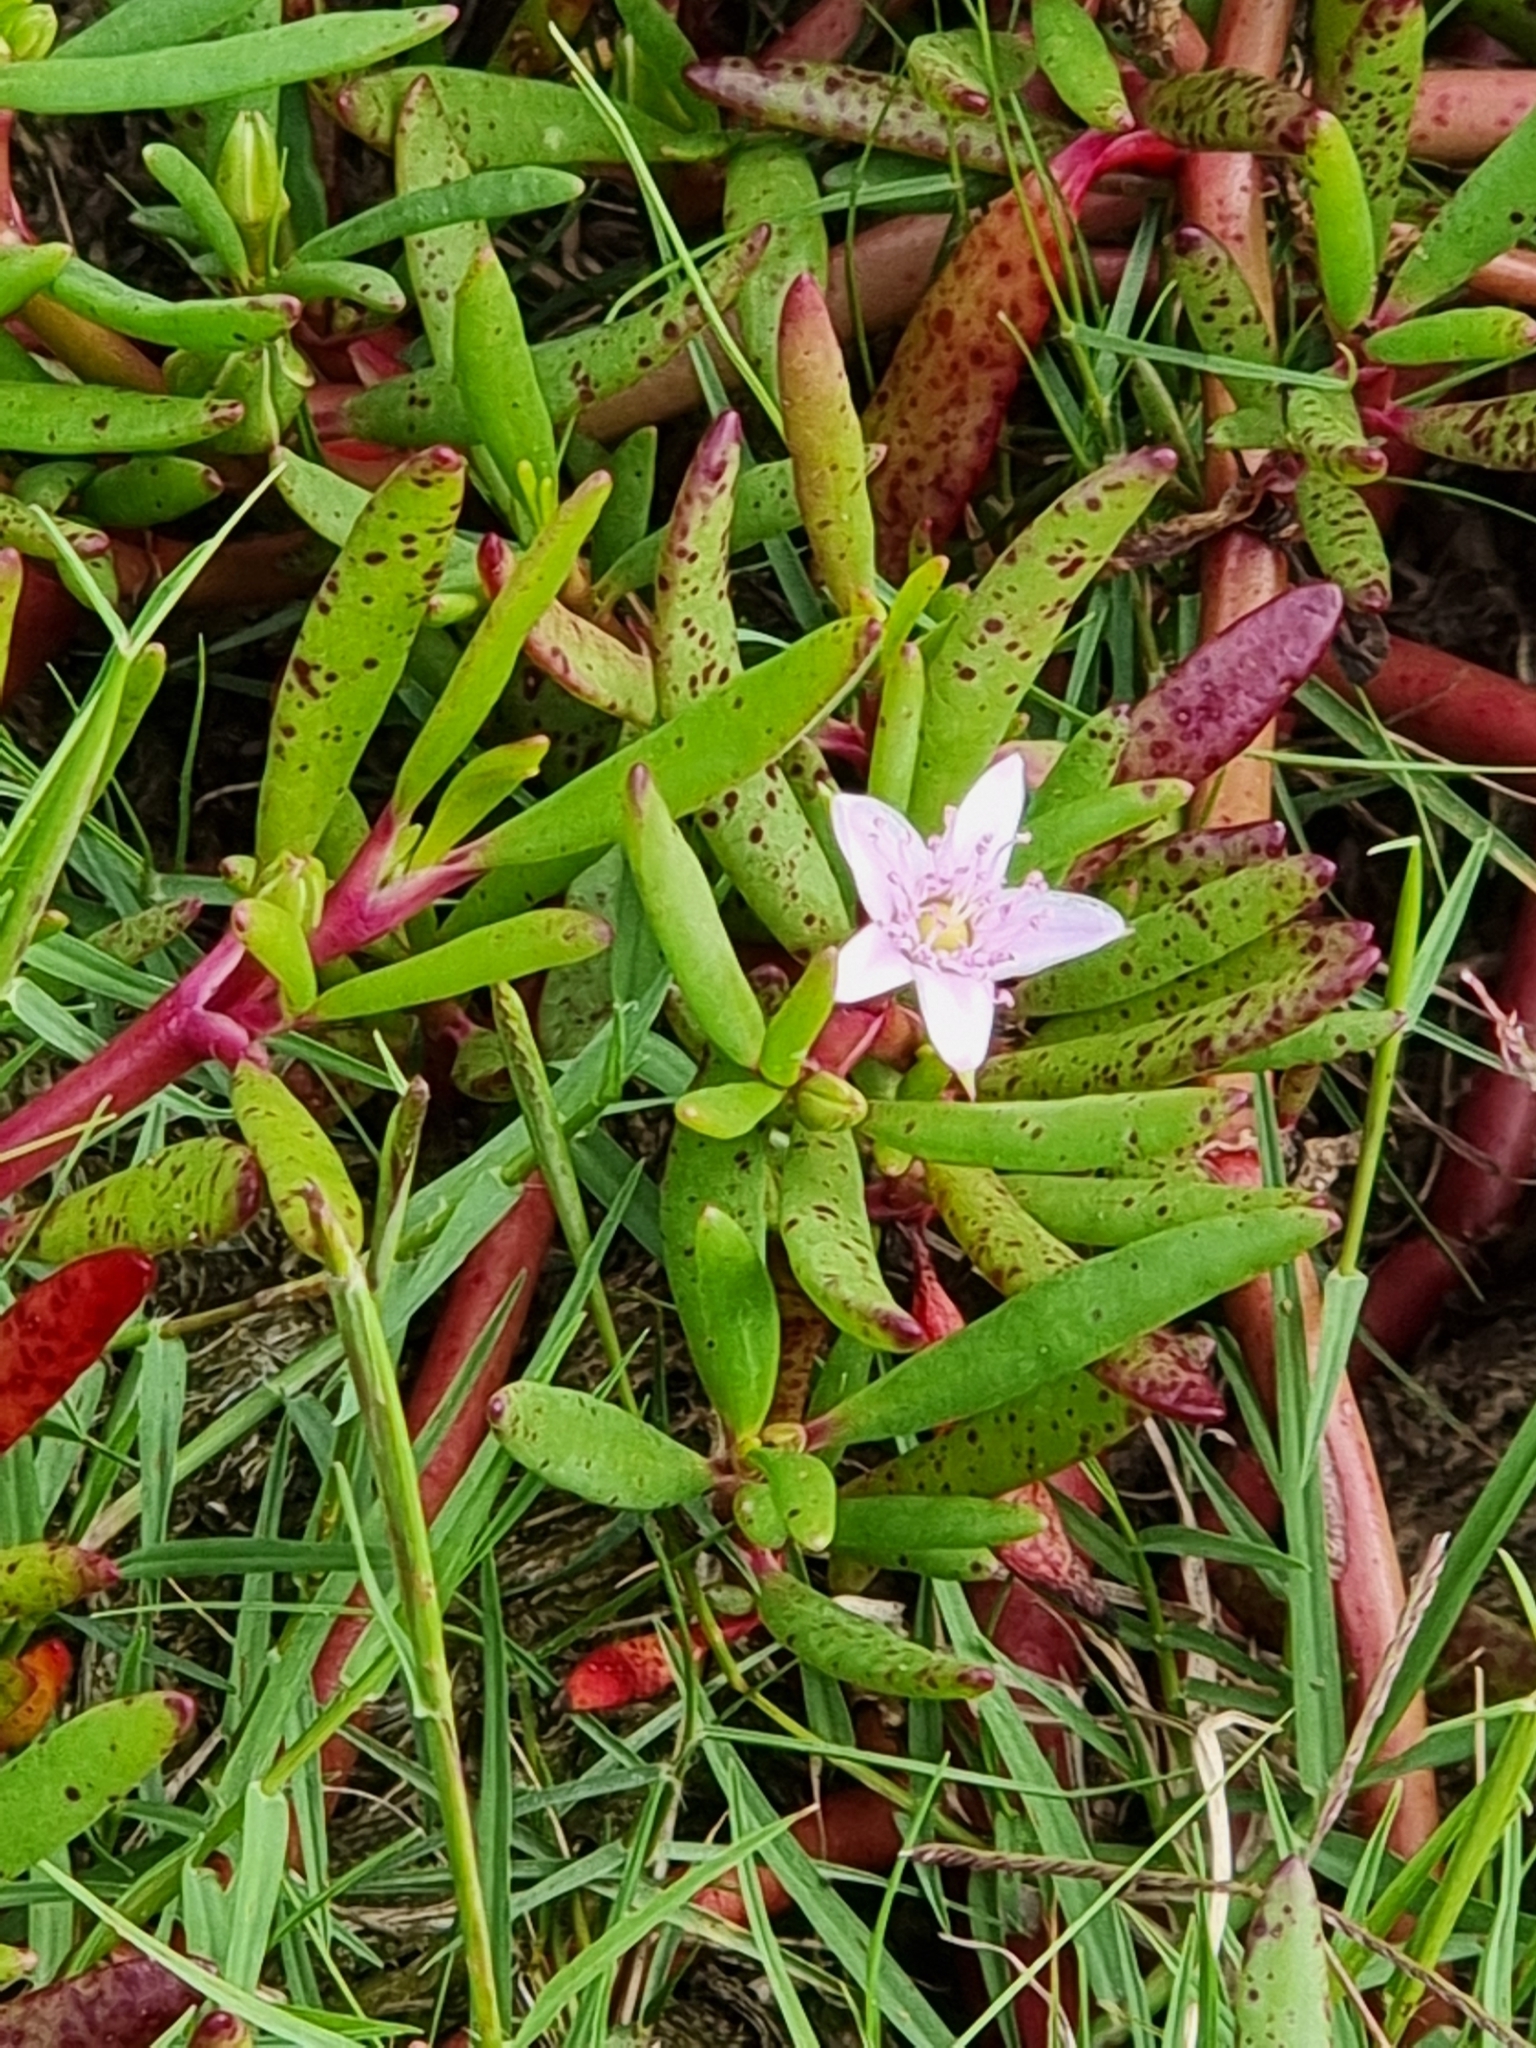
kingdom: Plantae
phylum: Tracheophyta
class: Magnoliopsida
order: Caryophyllales
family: Aizoaceae
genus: Sesuvium
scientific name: Sesuvium portulacastrum
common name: Sea-purslane
